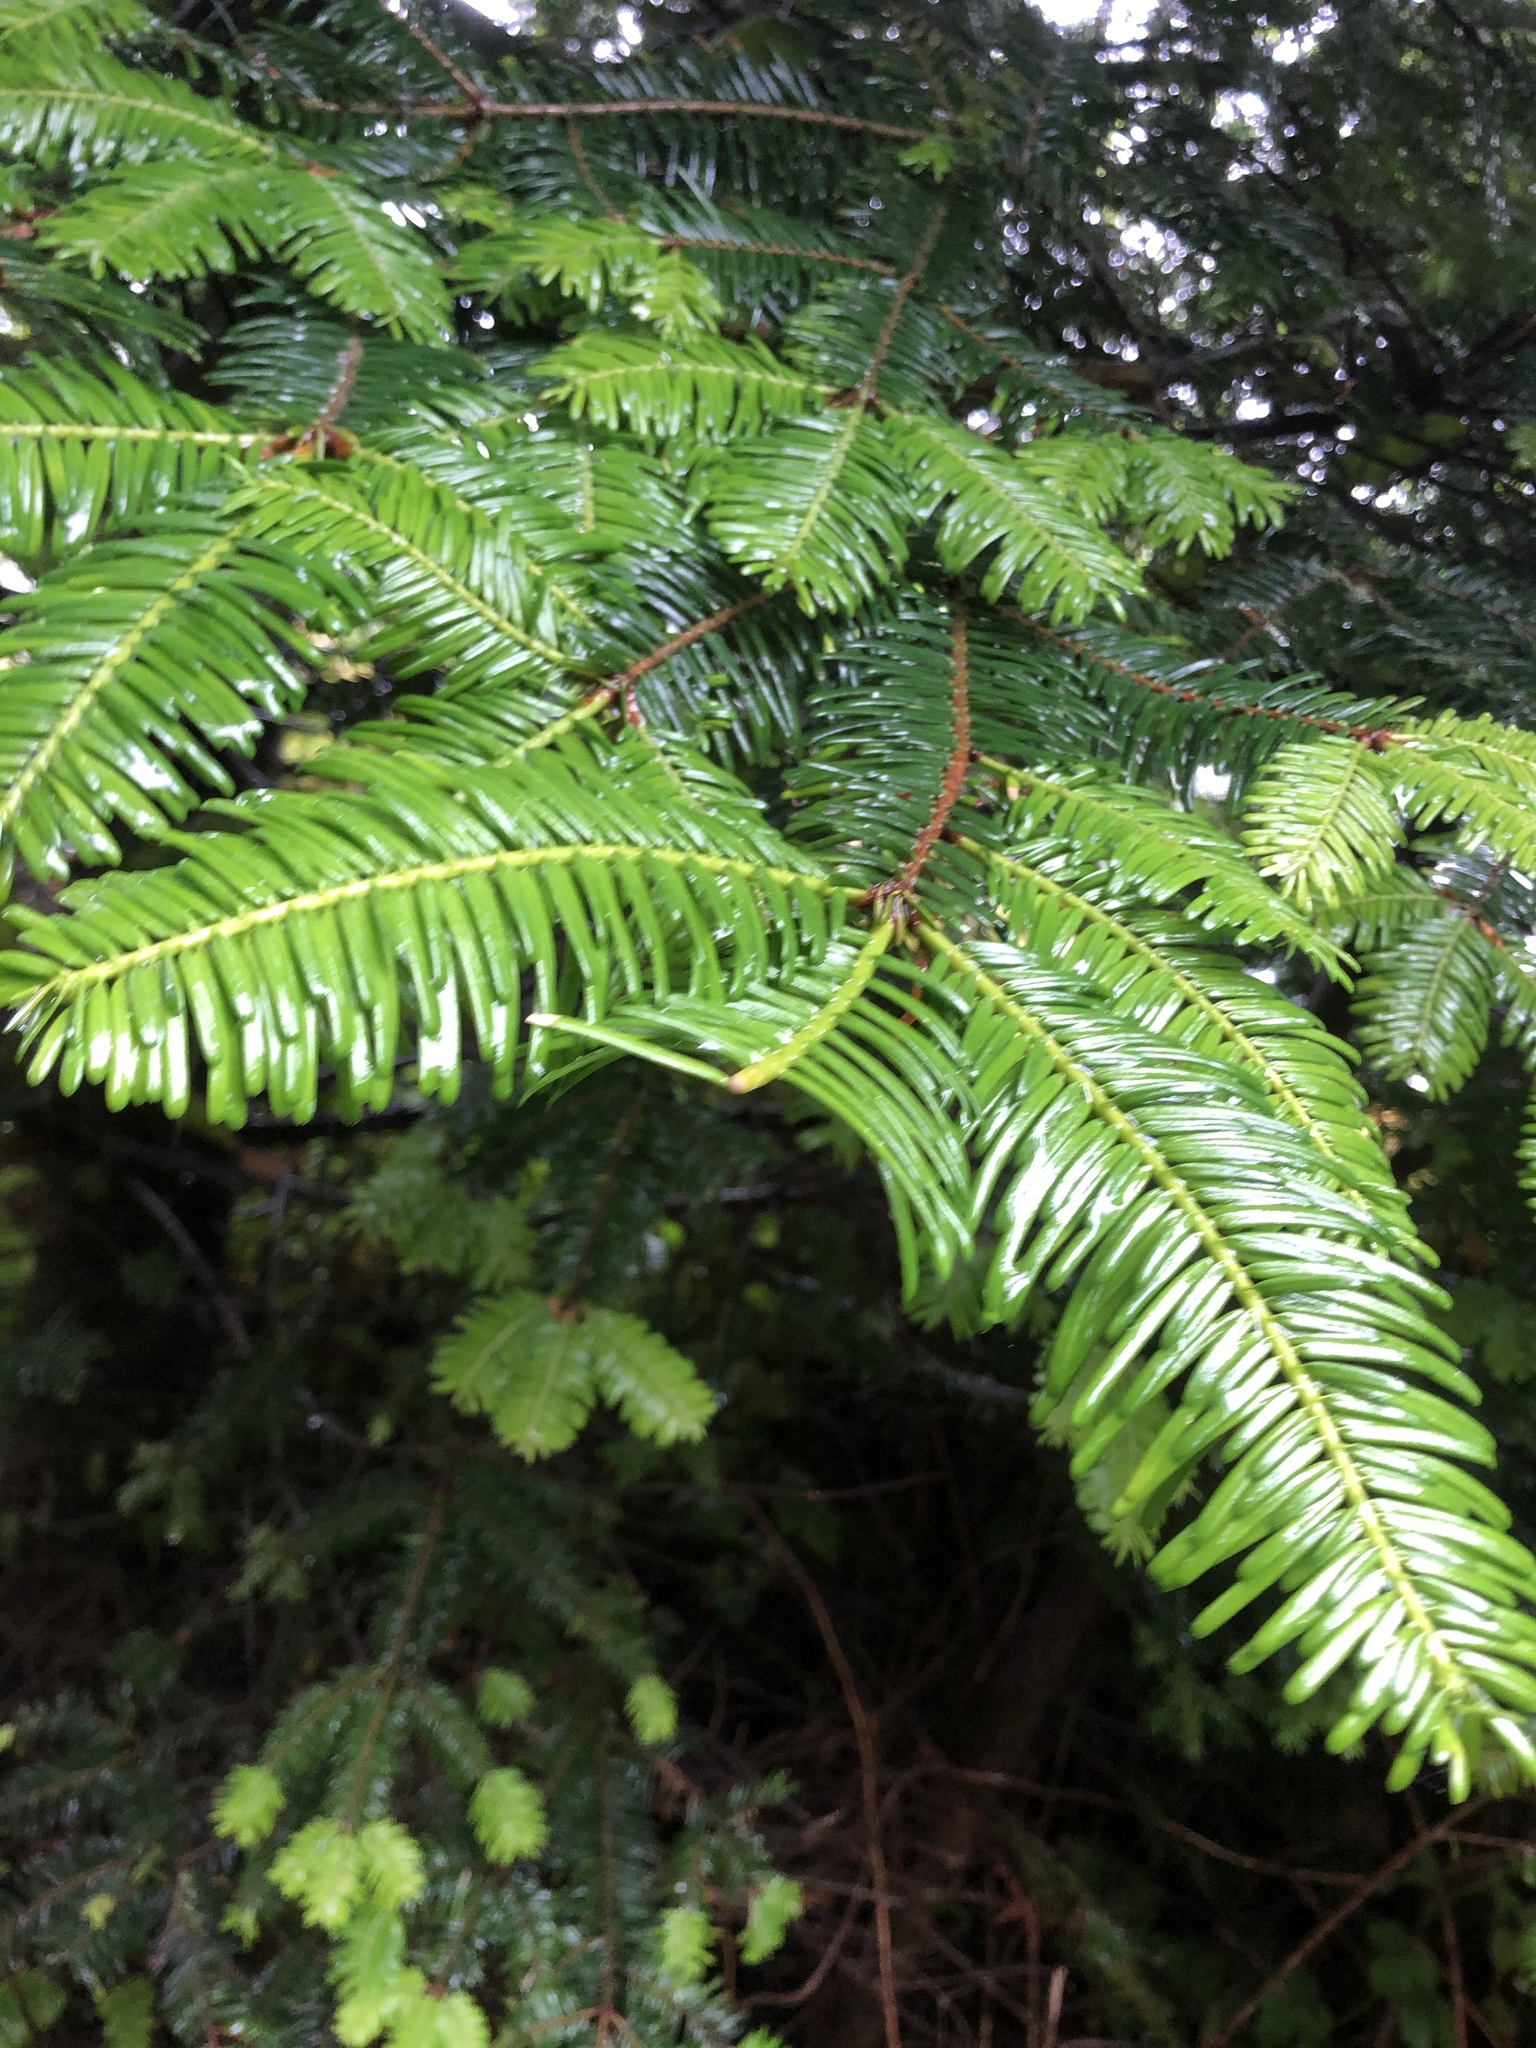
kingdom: Plantae
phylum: Tracheophyta
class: Pinopsida
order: Pinales
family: Pinaceae
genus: Abies
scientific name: Abies grandis
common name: Giant fir
